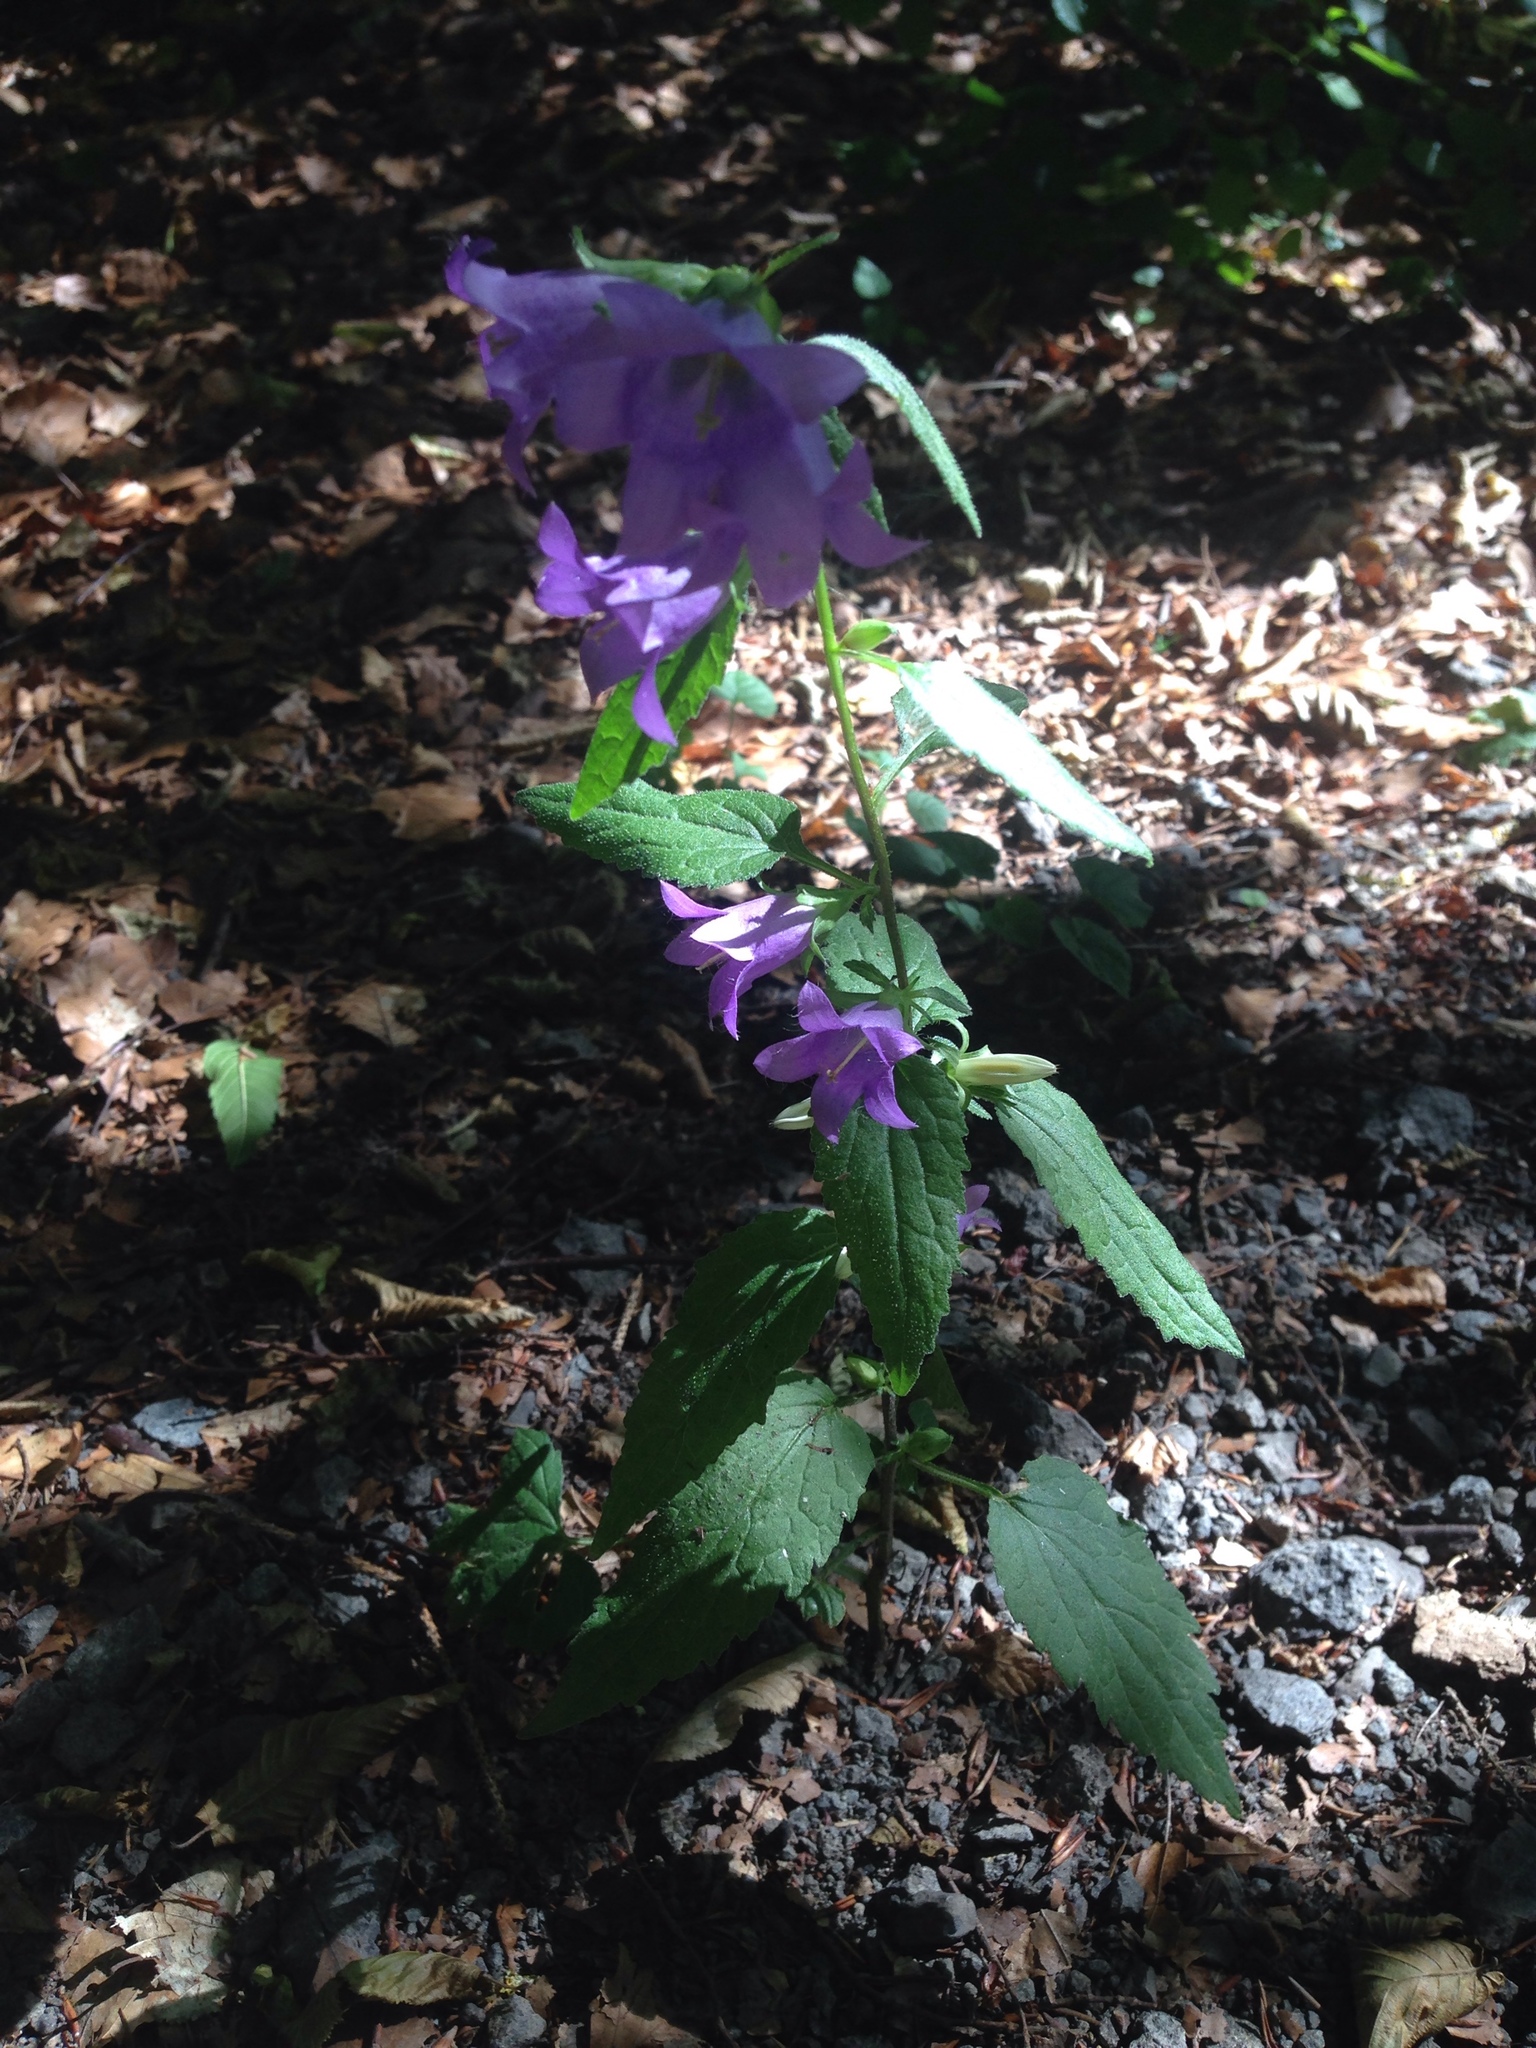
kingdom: Plantae
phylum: Tracheophyta
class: Magnoliopsida
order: Asterales
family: Campanulaceae
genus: Campanula
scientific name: Campanula trachelium
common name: Nettle-leaved bellflower
